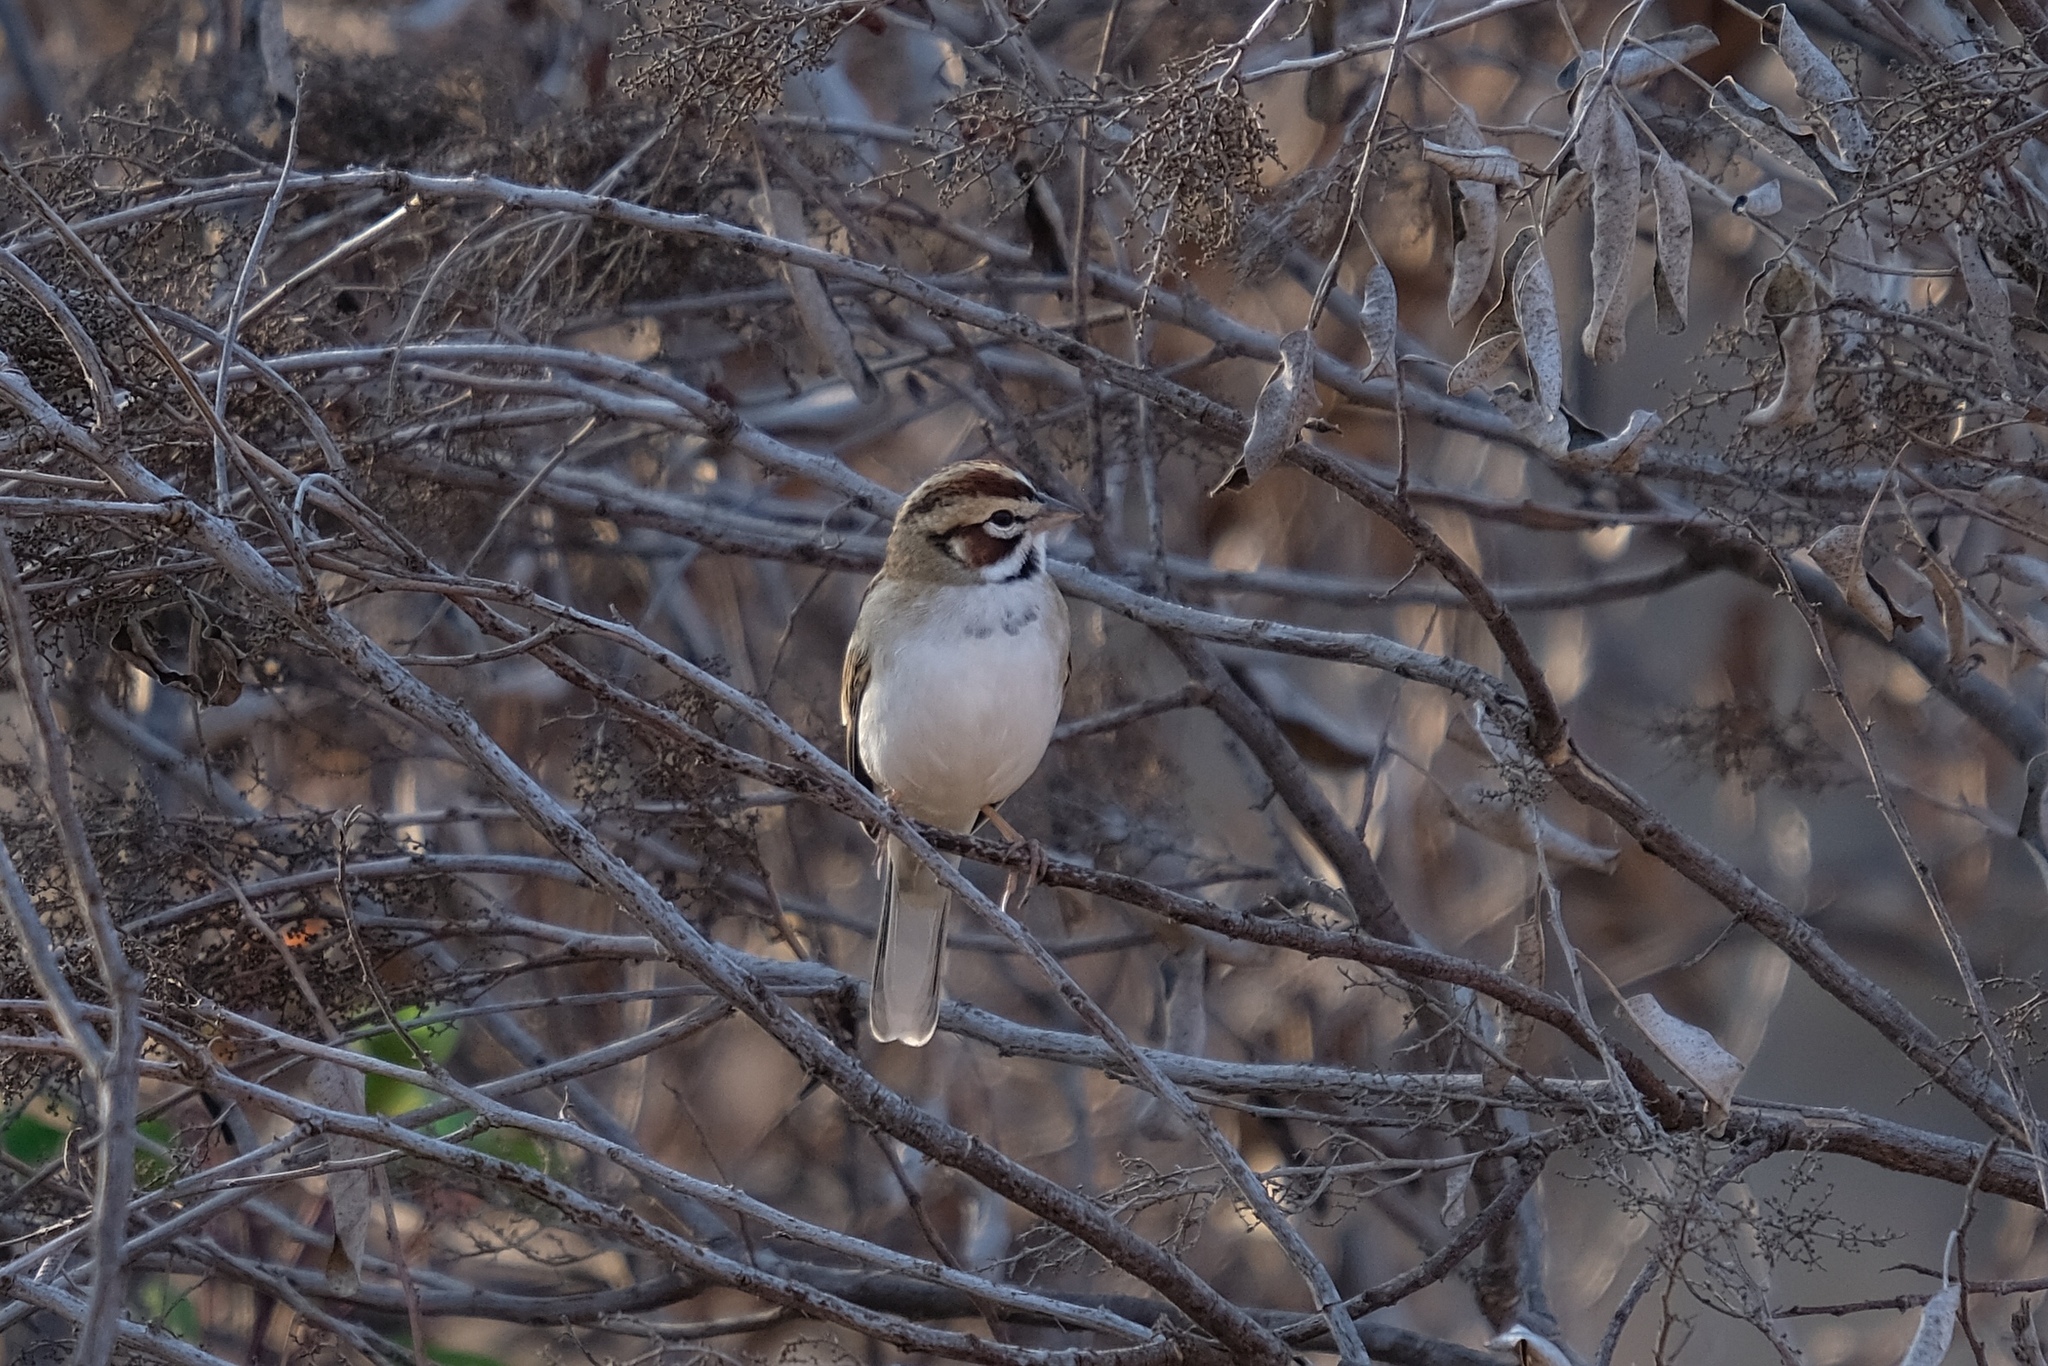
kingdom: Animalia
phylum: Chordata
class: Aves
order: Passeriformes
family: Passerellidae
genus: Chondestes
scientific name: Chondestes grammacus
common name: Lark sparrow
